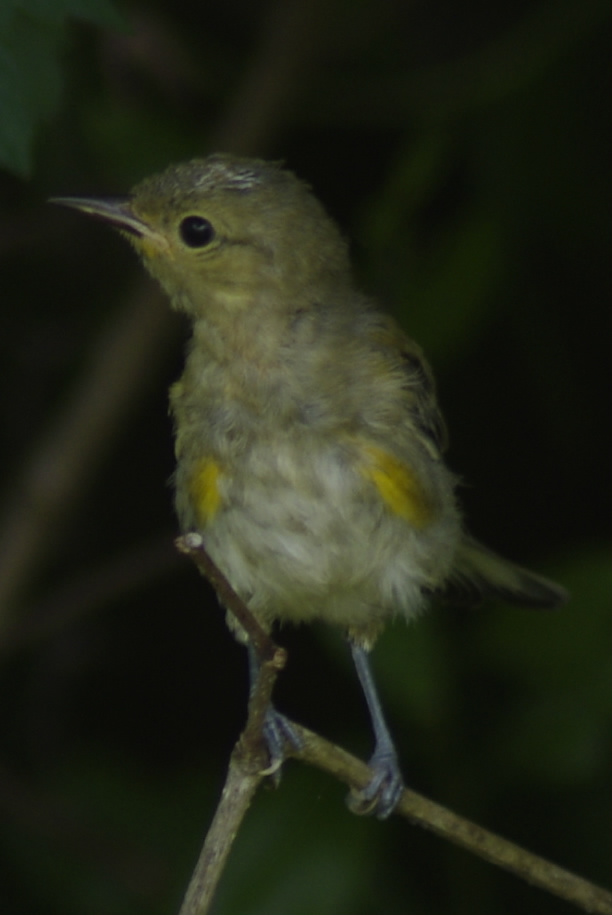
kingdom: Animalia
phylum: Chordata
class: Aves
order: Passeriformes
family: Parulidae
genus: Protonotaria
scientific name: Protonotaria citrea
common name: Prothonotary warbler
